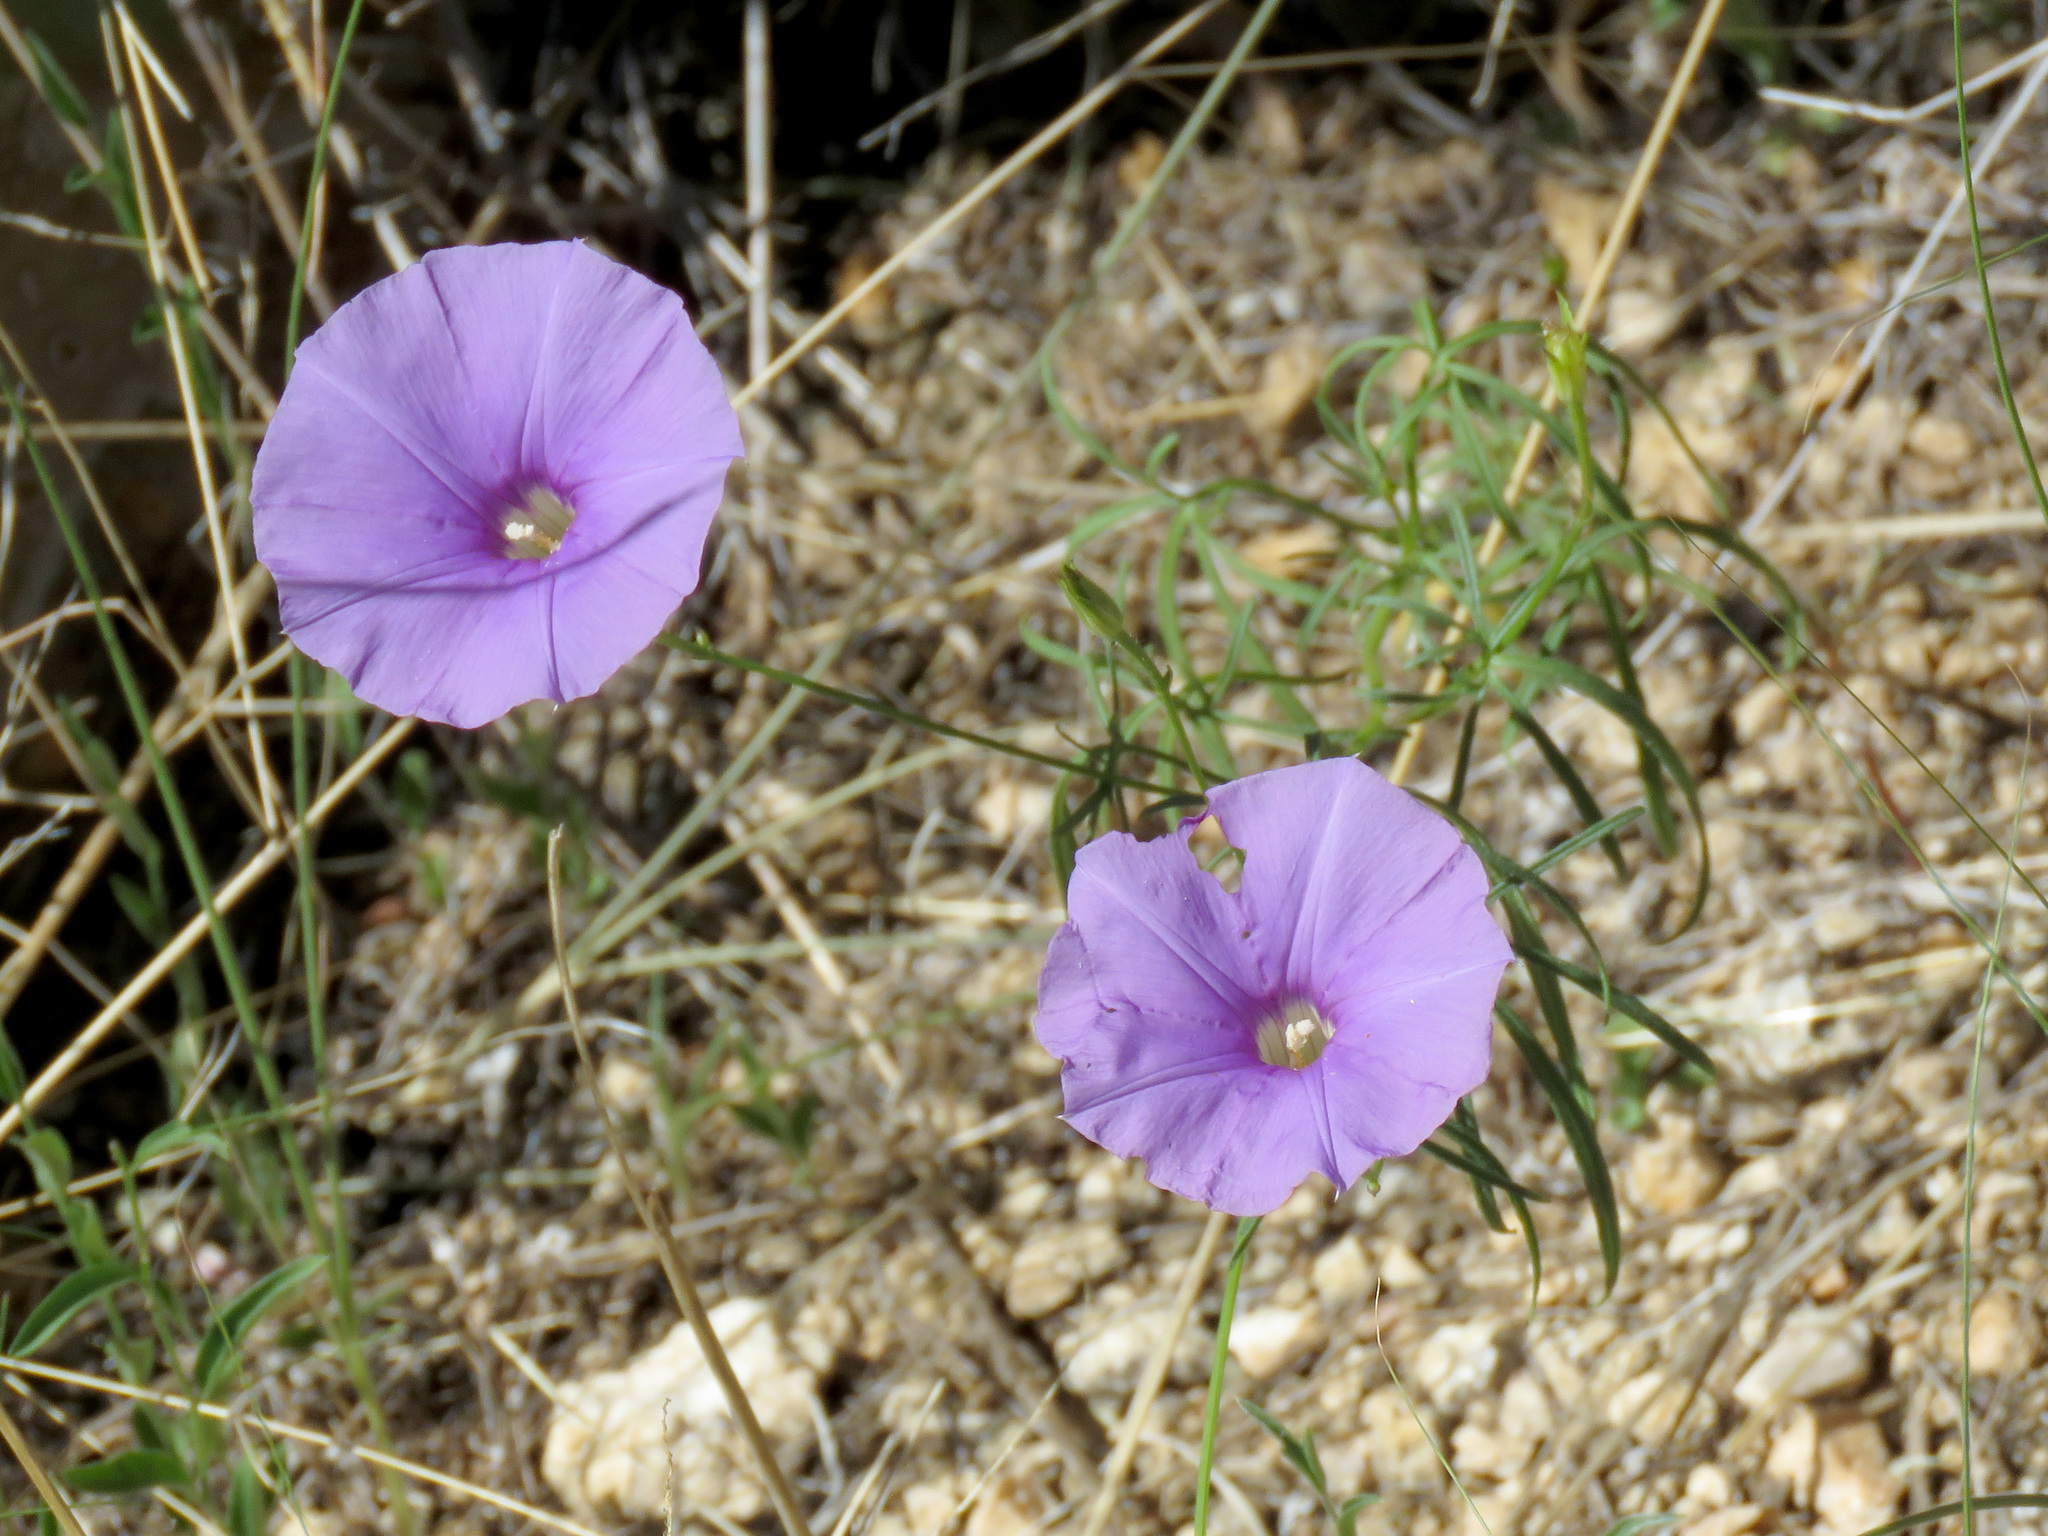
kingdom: Plantae
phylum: Tracheophyta
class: Magnoliopsida
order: Solanales
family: Convolvulaceae
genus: Ipomoea
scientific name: Ipomoea ternifolia
